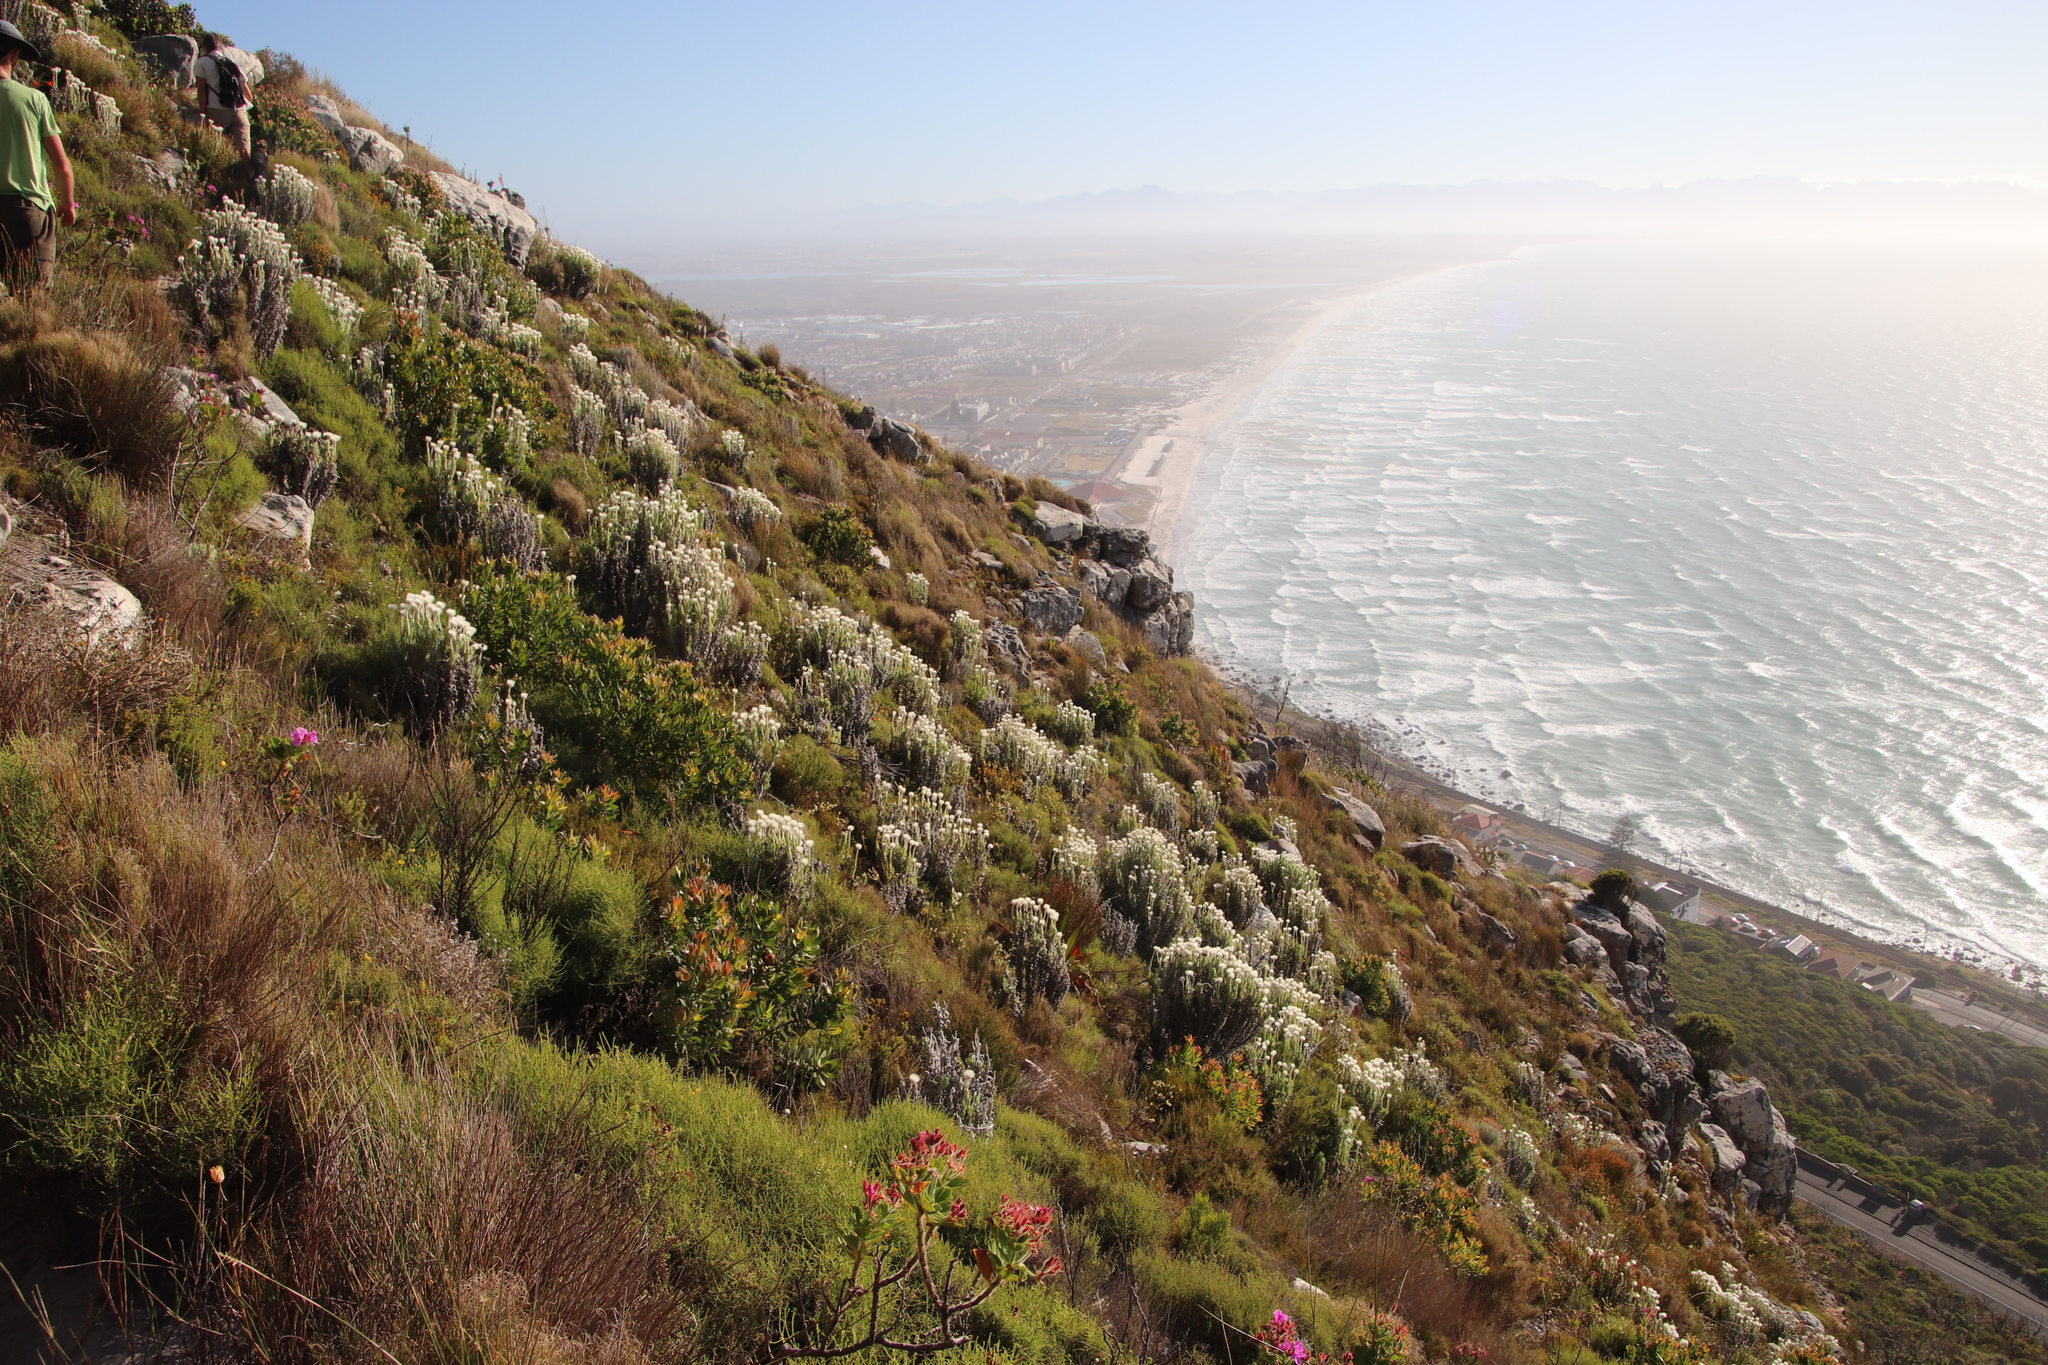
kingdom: Plantae
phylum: Tracheophyta
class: Magnoliopsida
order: Asterales
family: Asteraceae
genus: Syncarpha
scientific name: Syncarpha vestita
